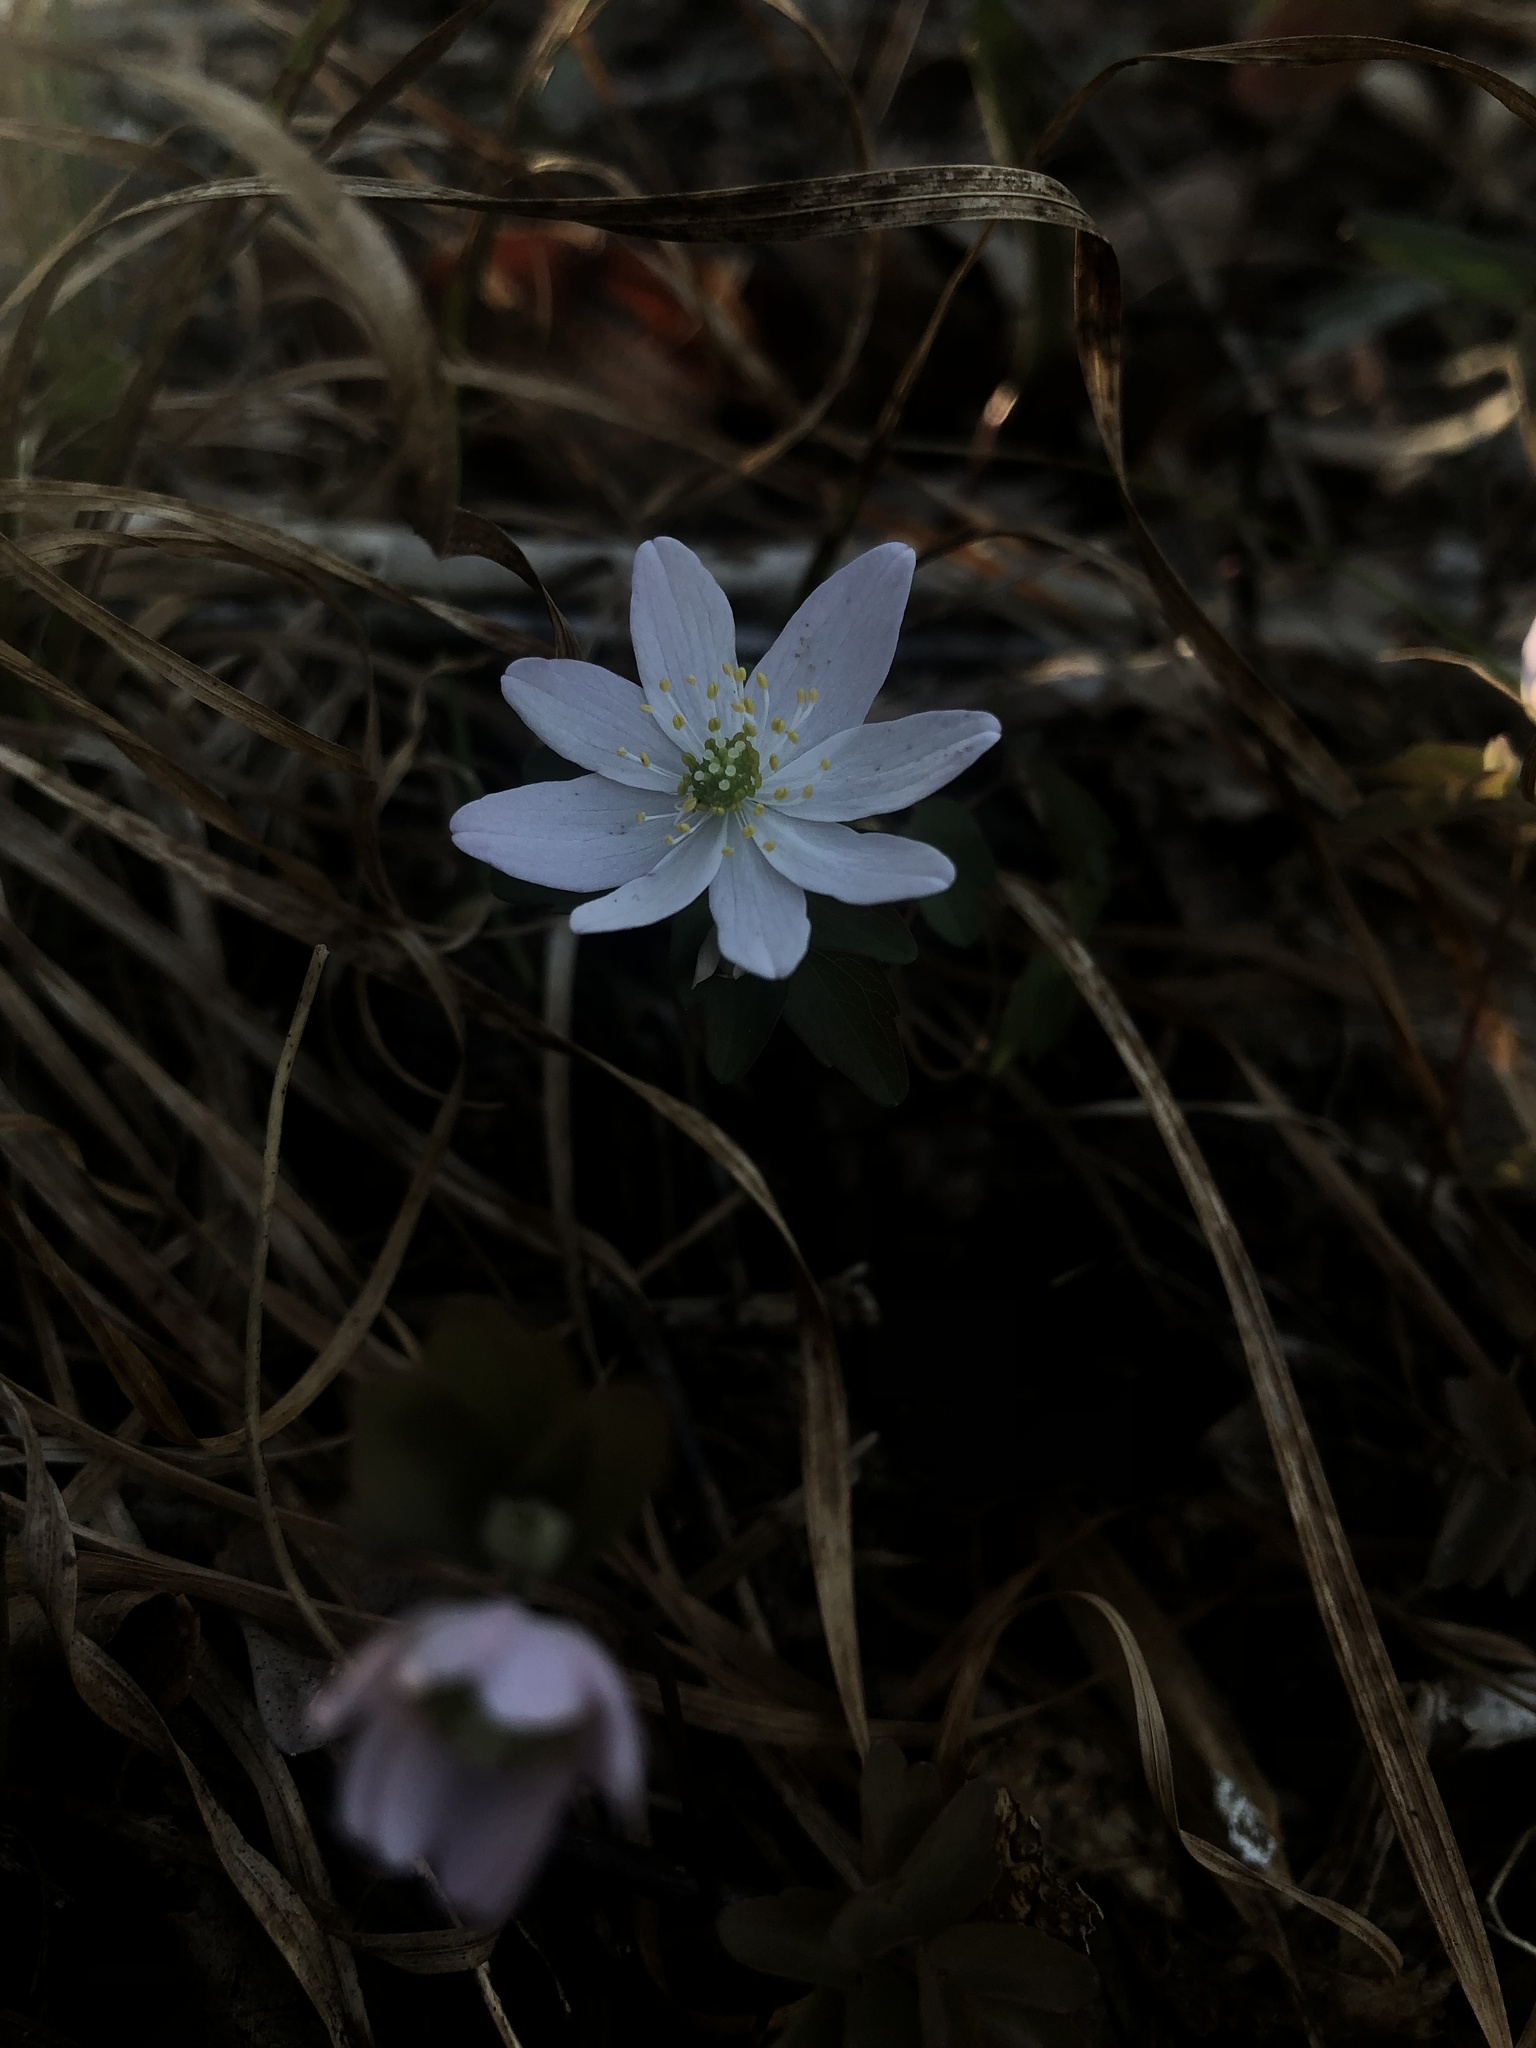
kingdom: Plantae
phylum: Tracheophyta
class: Magnoliopsida
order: Ranunculales
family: Ranunculaceae
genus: Thalictrum
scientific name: Thalictrum thalictroides
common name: Rue-anemone
